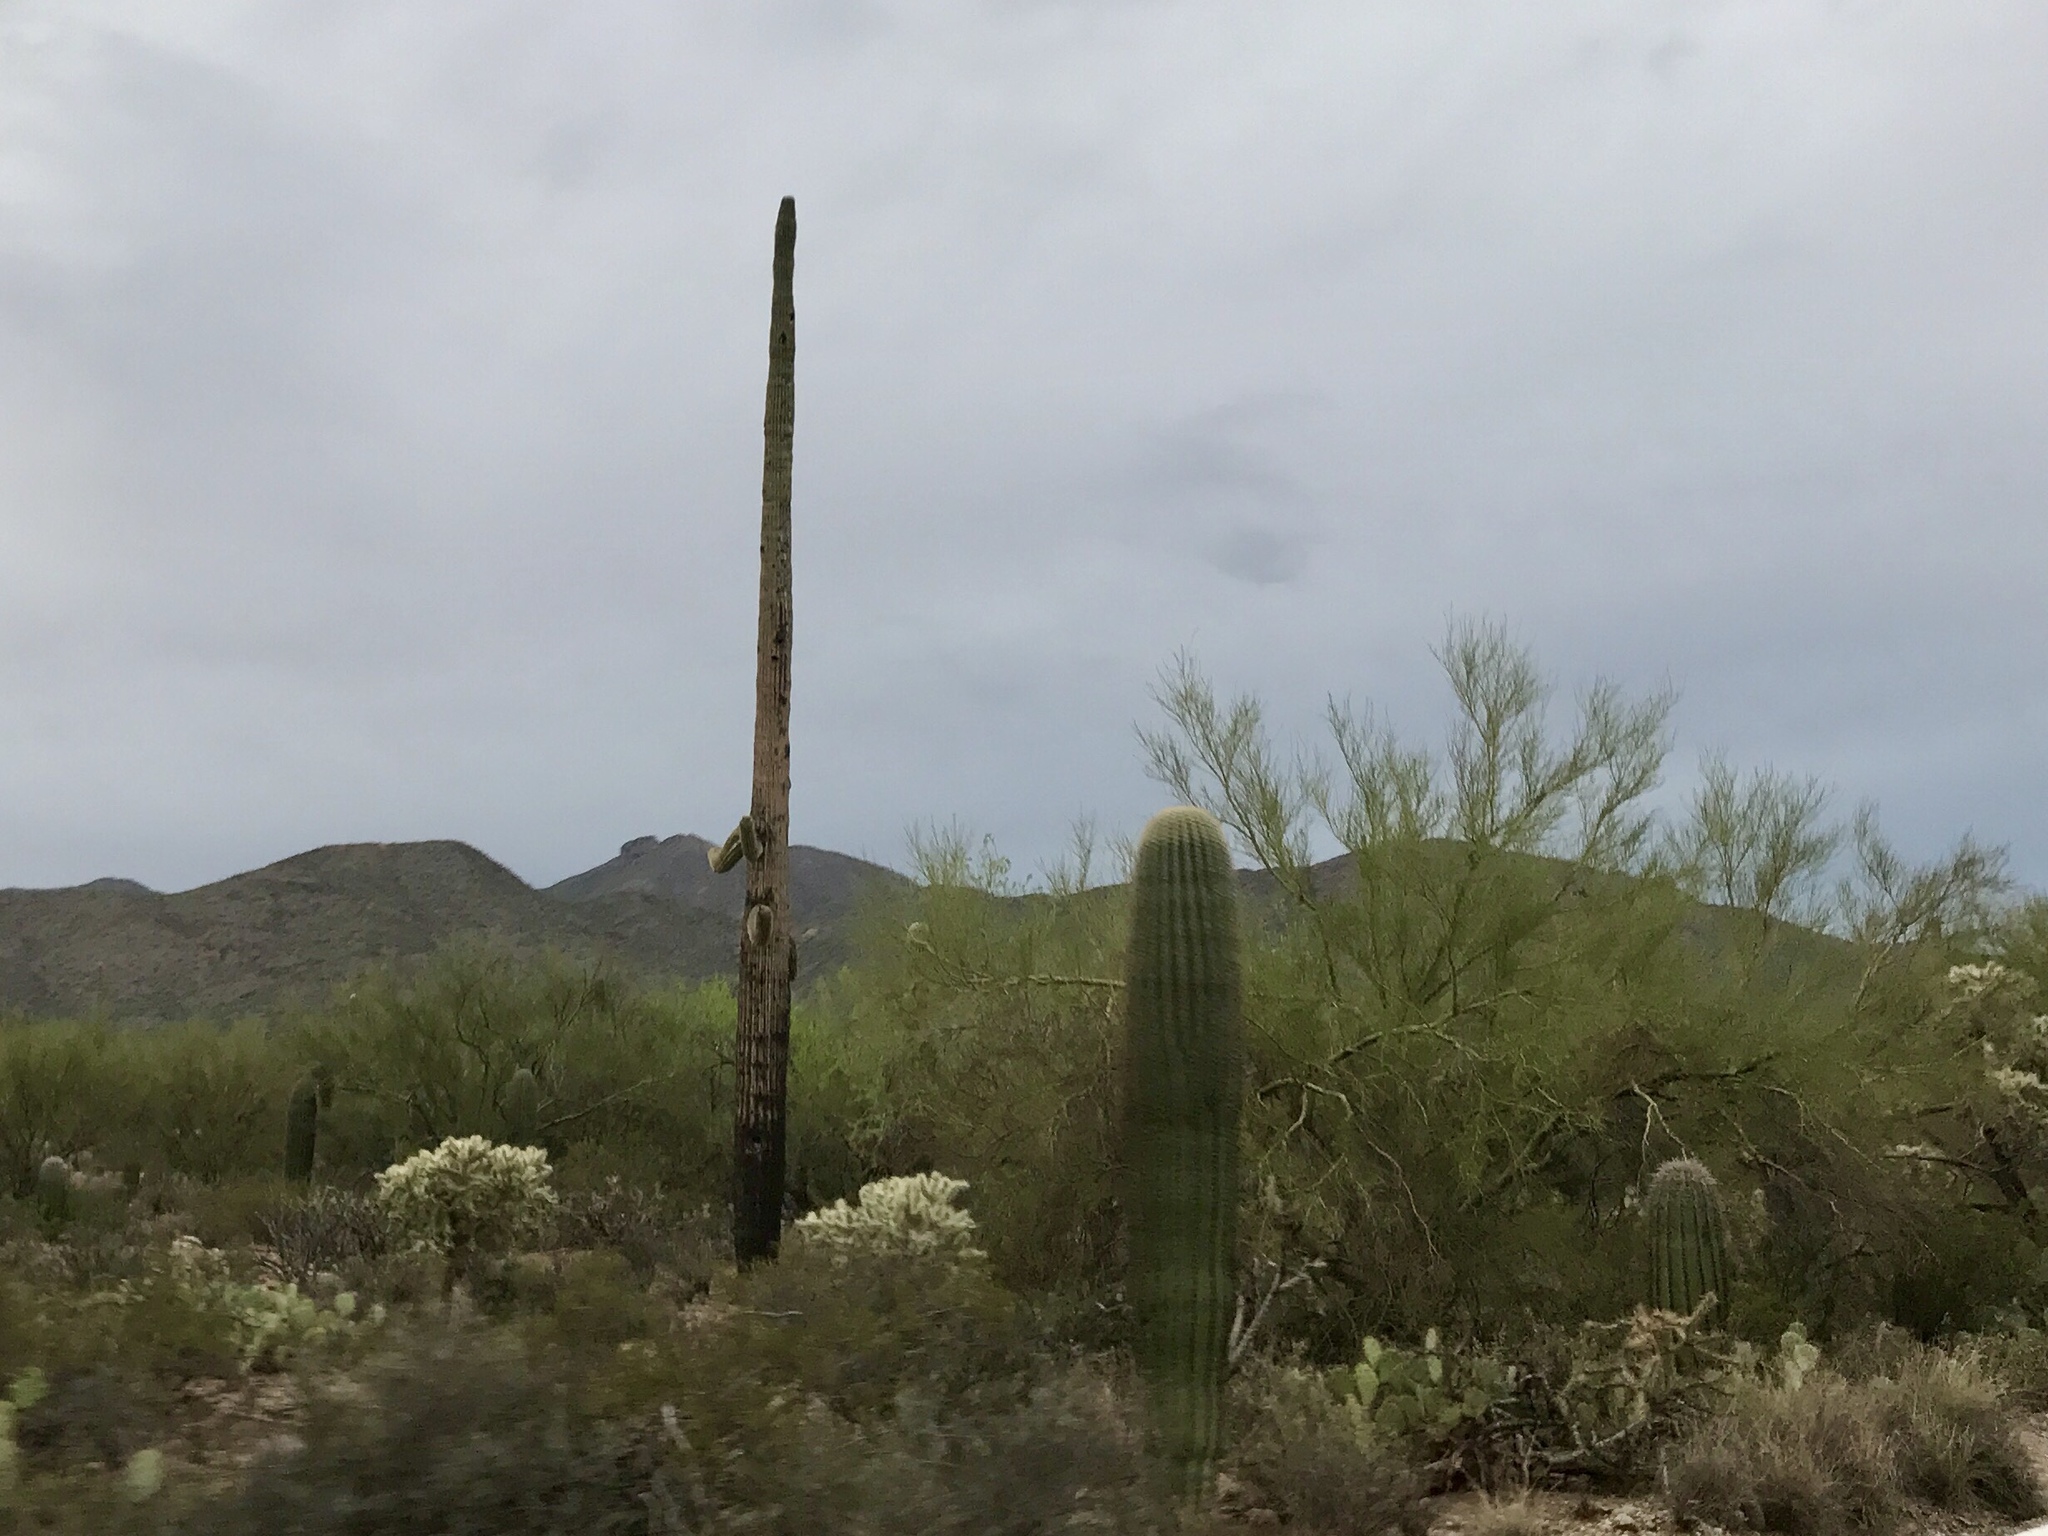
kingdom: Plantae
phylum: Tracheophyta
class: Magnoliopsida
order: Caryophyllales
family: Cactaceae
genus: Carnegiea
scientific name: Carnegiea gigantea
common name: Saguaro
